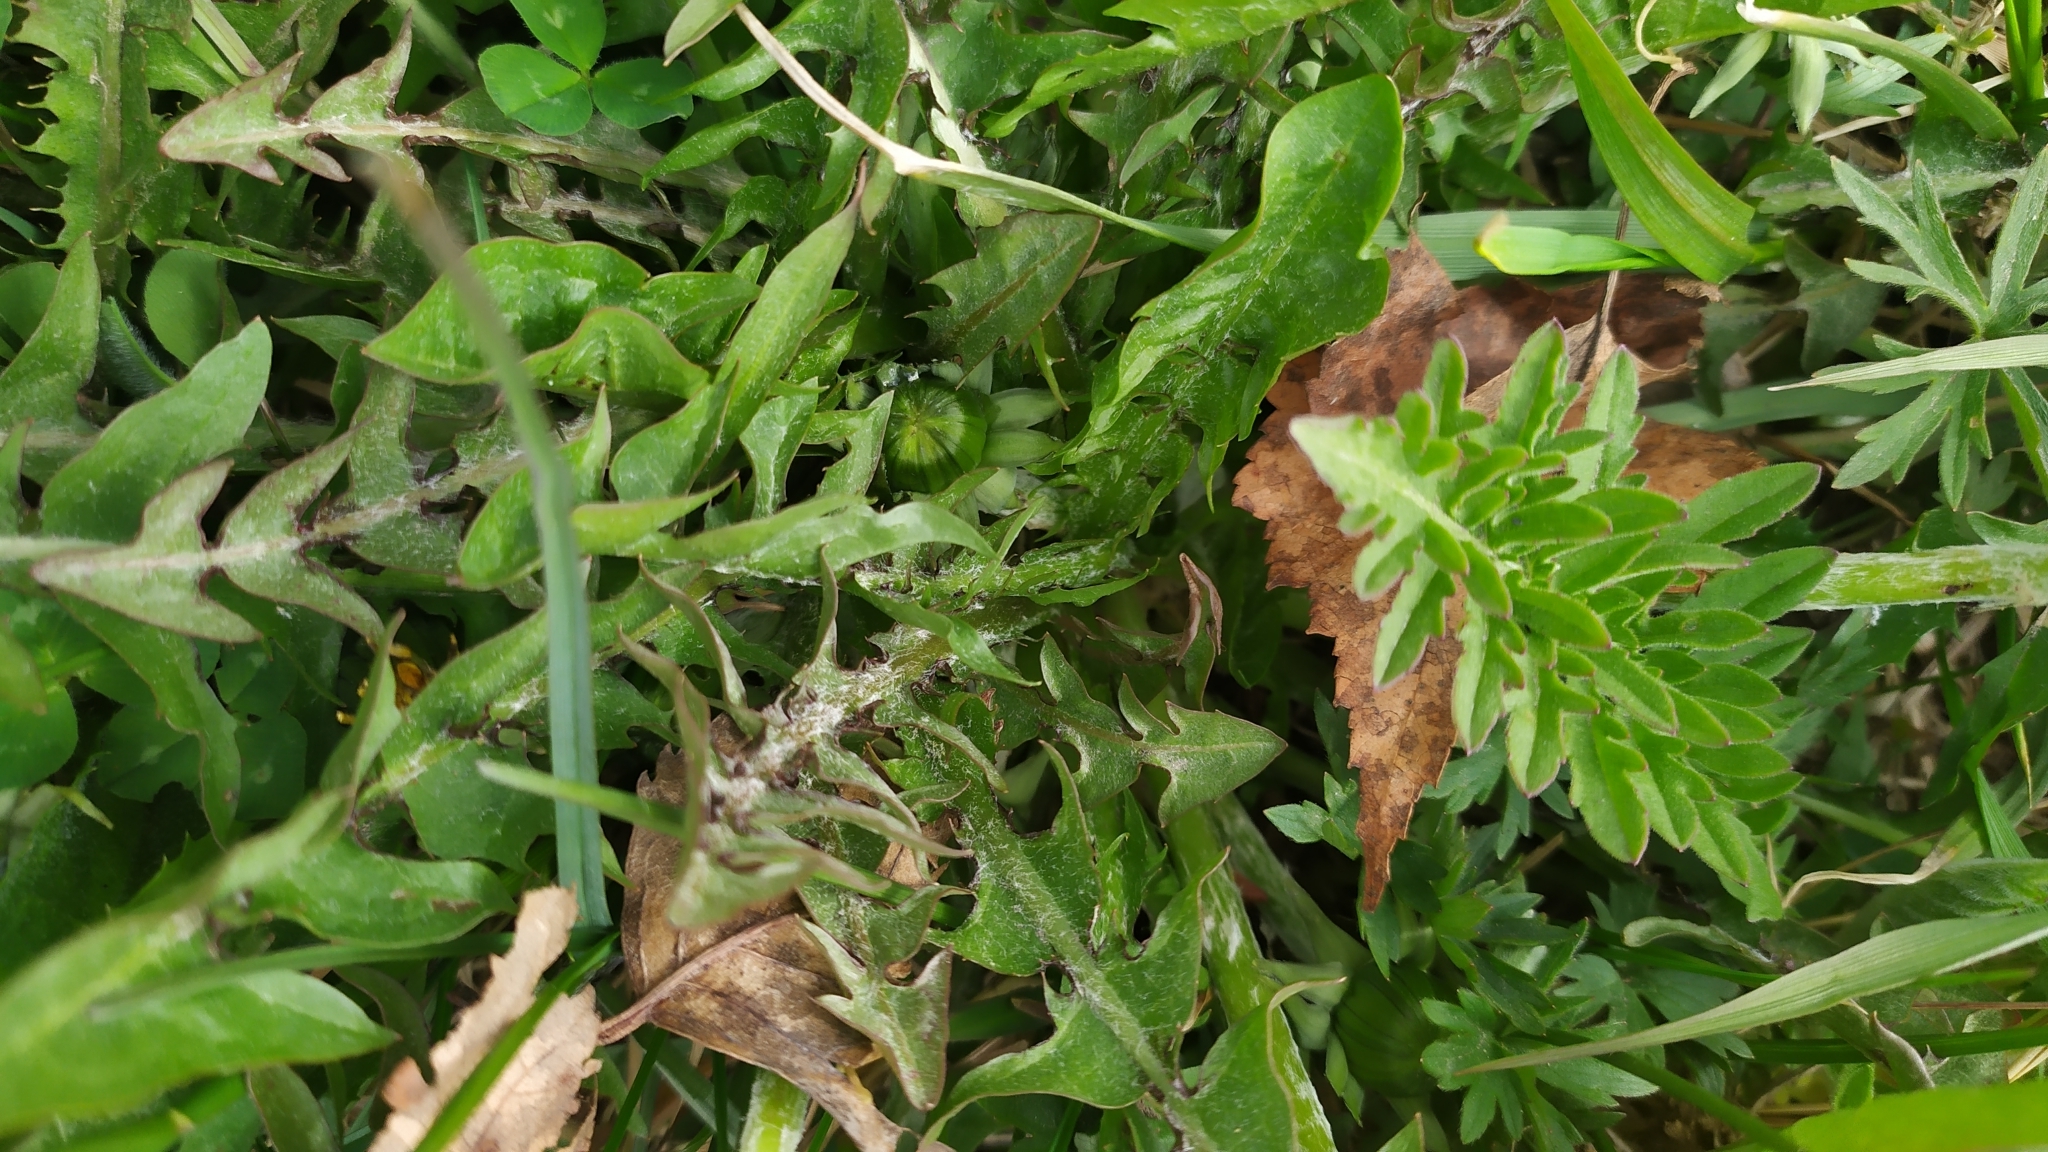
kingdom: Plantae
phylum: Tracheophyta
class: Magnoliopsida
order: Asterales
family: Asteraceae
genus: Taraxacum
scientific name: Taraxacum officinale
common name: Common dandelion
